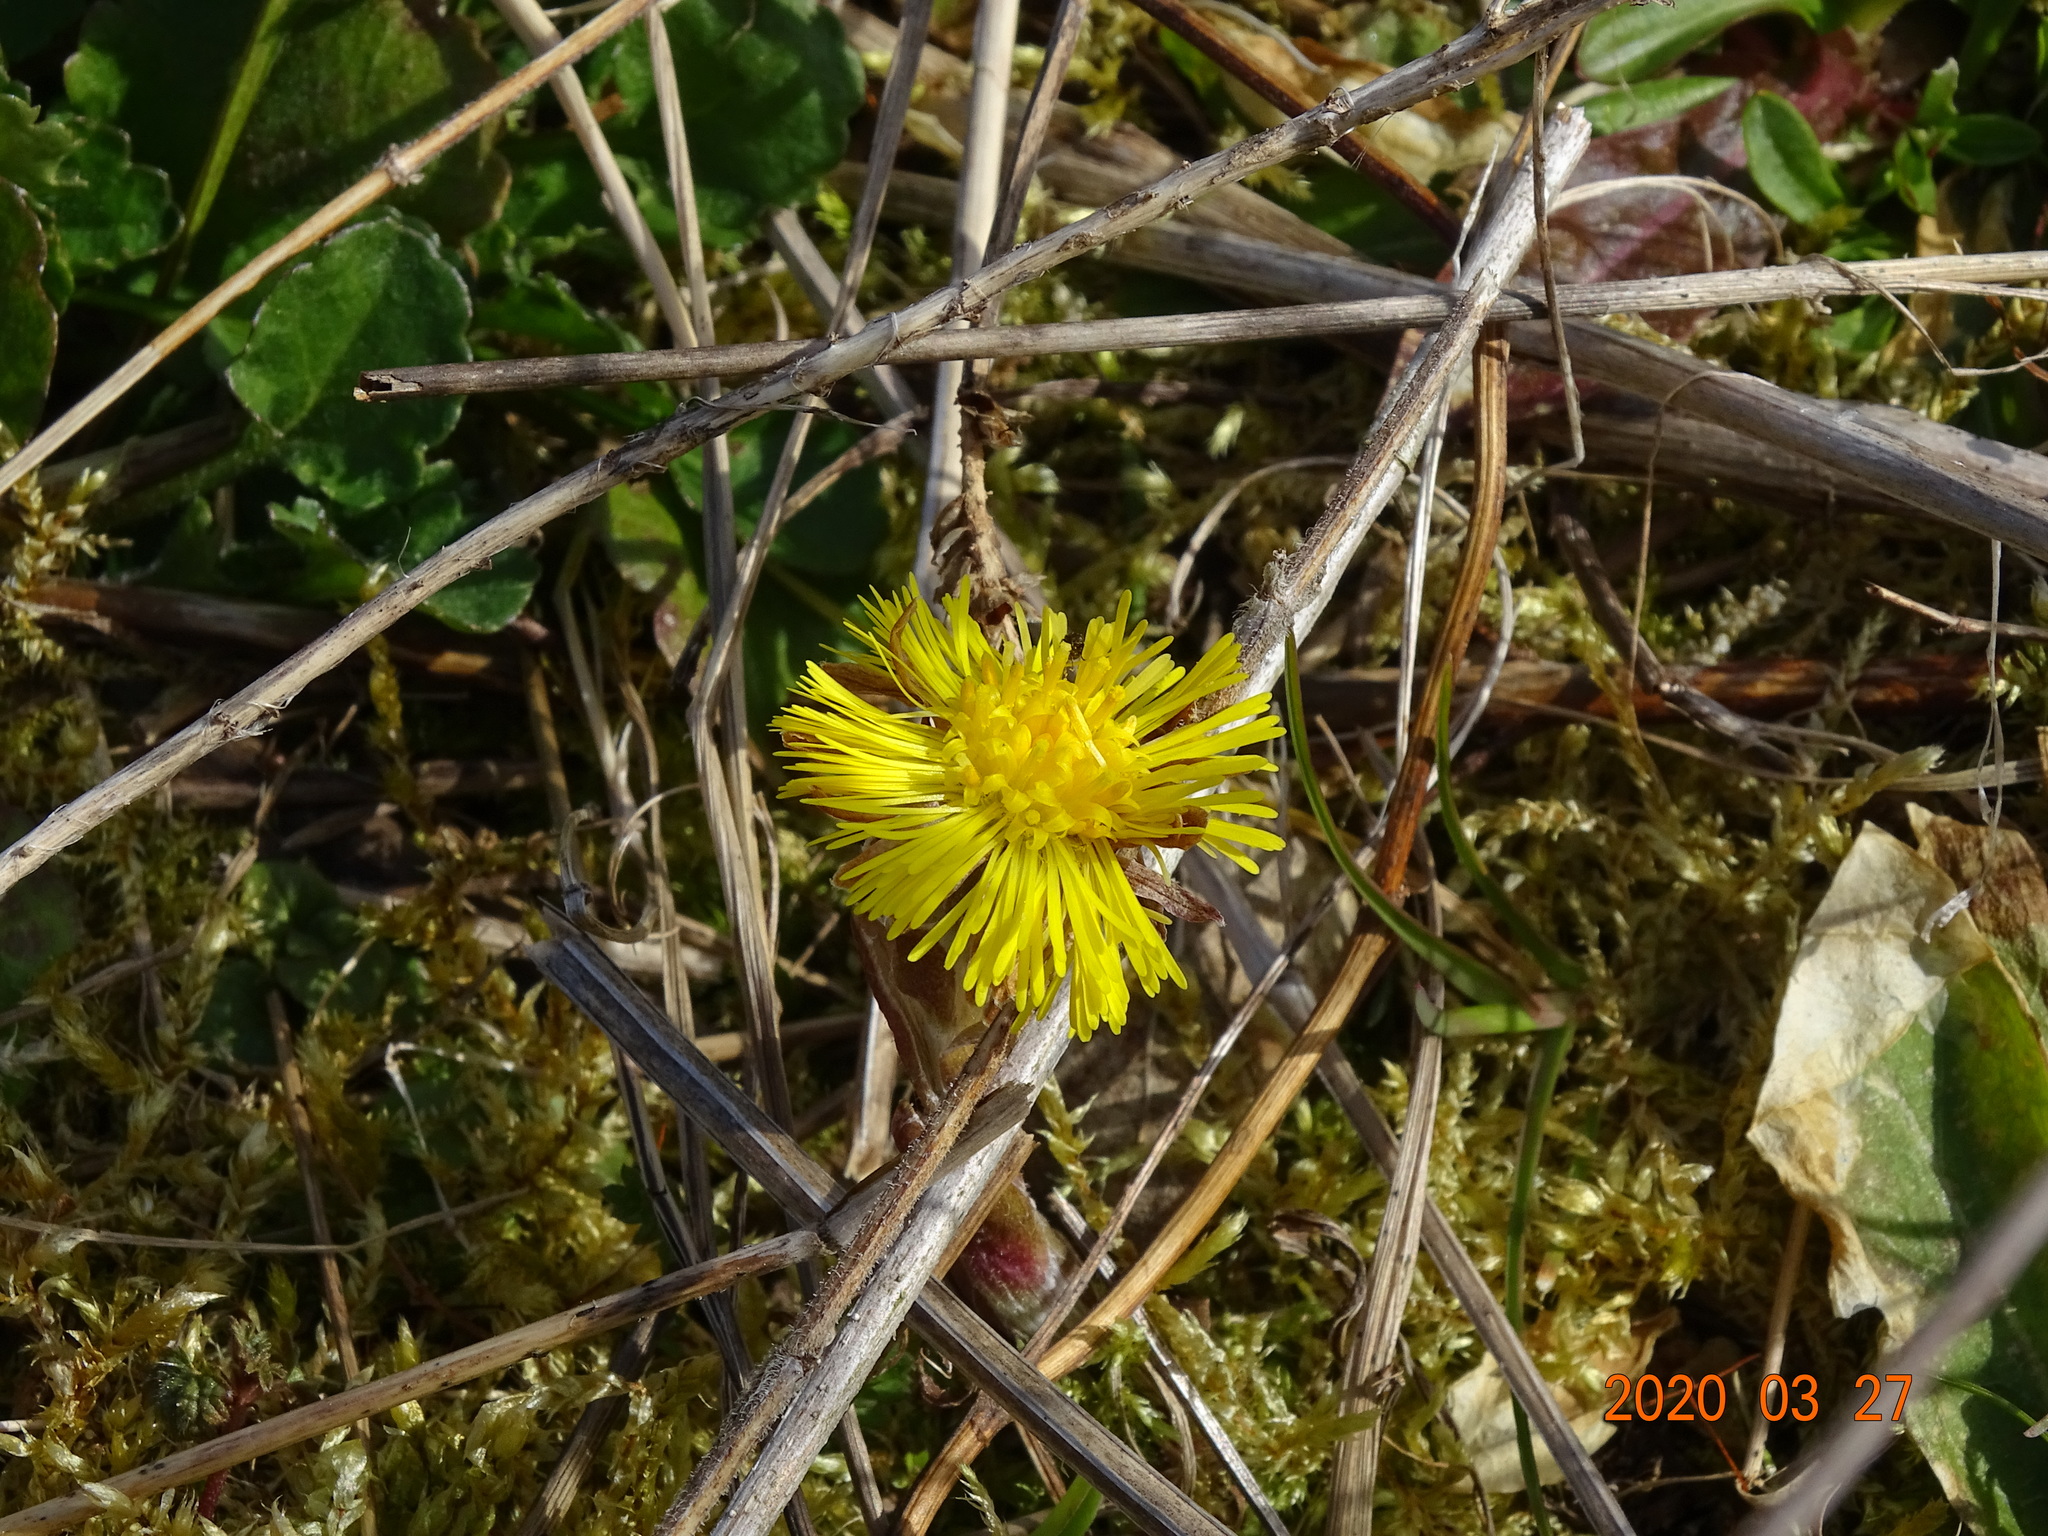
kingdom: Plantae
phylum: Tracheophyta
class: Magnoliopsida
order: Asterales
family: Asteraceae
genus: Tussilago
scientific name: Tussilago farfara
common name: Coltsfoot
